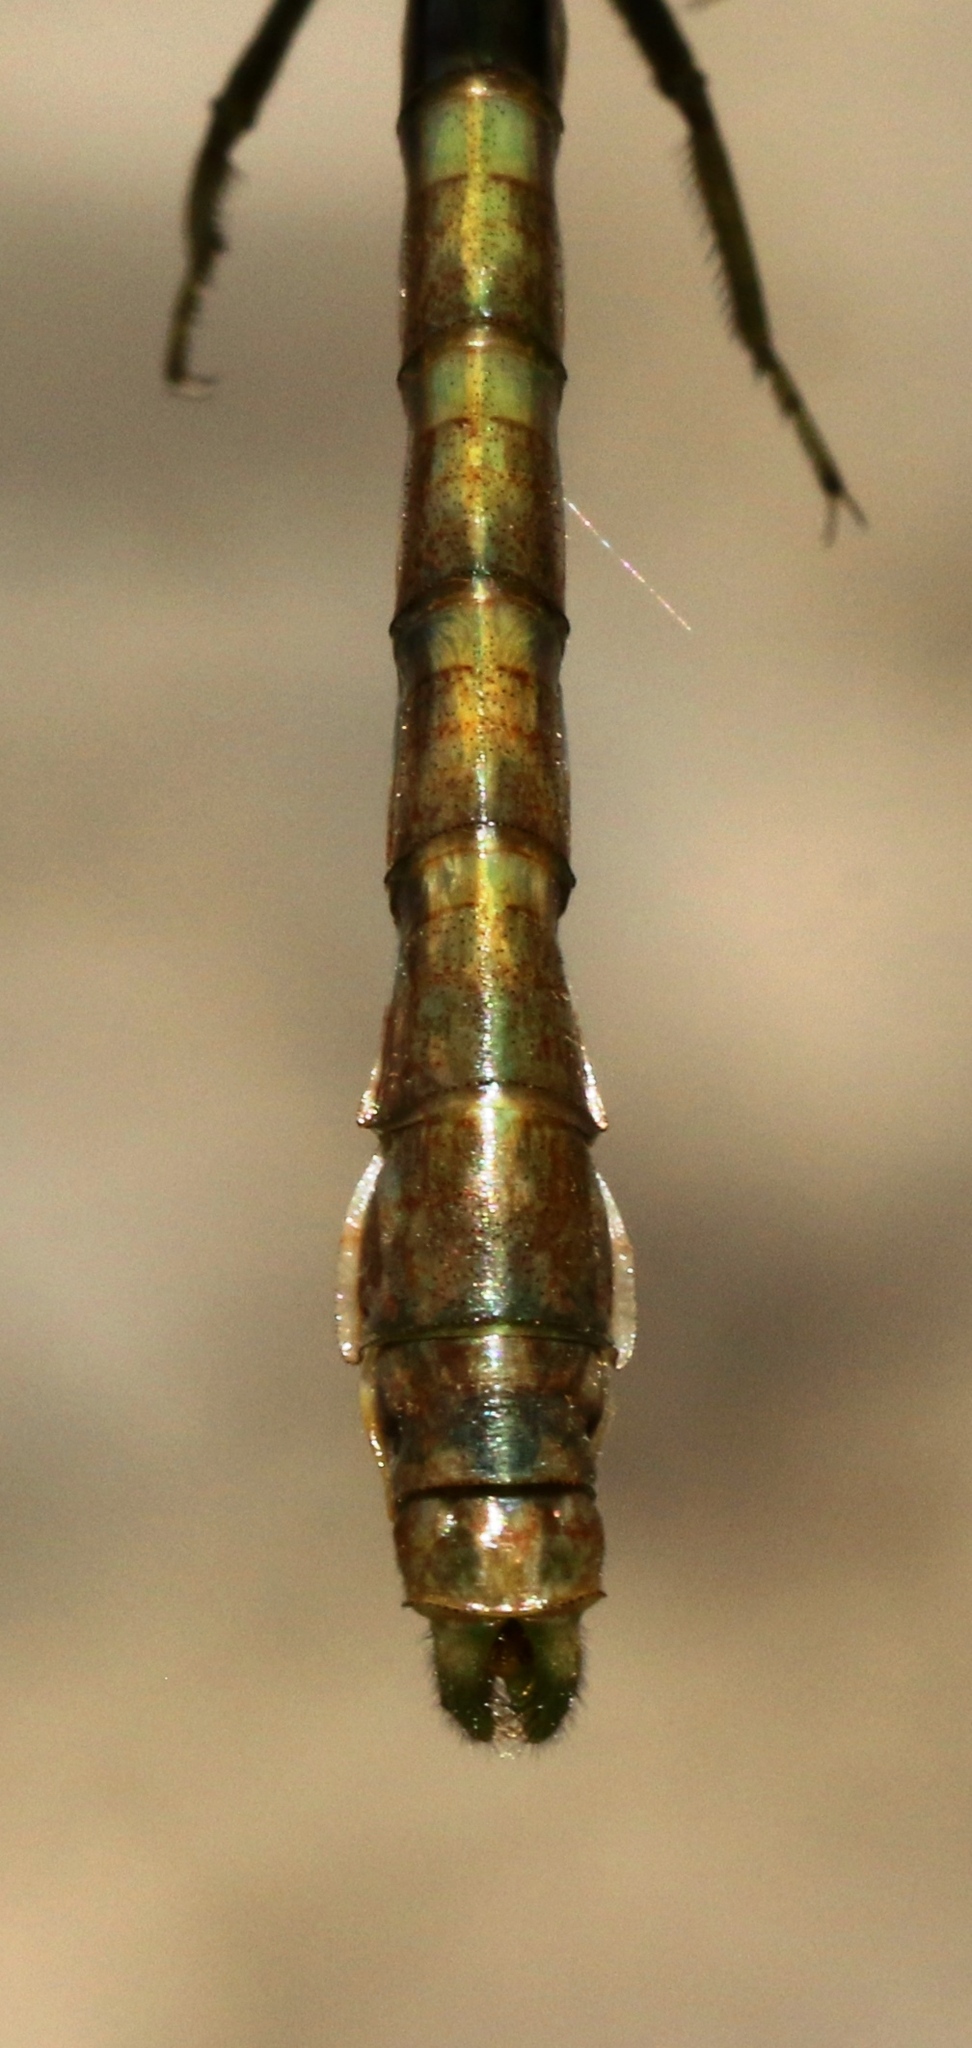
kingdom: Animalia
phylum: Arthropoda
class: Insecta
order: Odonata
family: Gomphidae
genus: Ophiogomphus
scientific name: Ophiogomphus rupinsulensis
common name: Rusty snaketail
